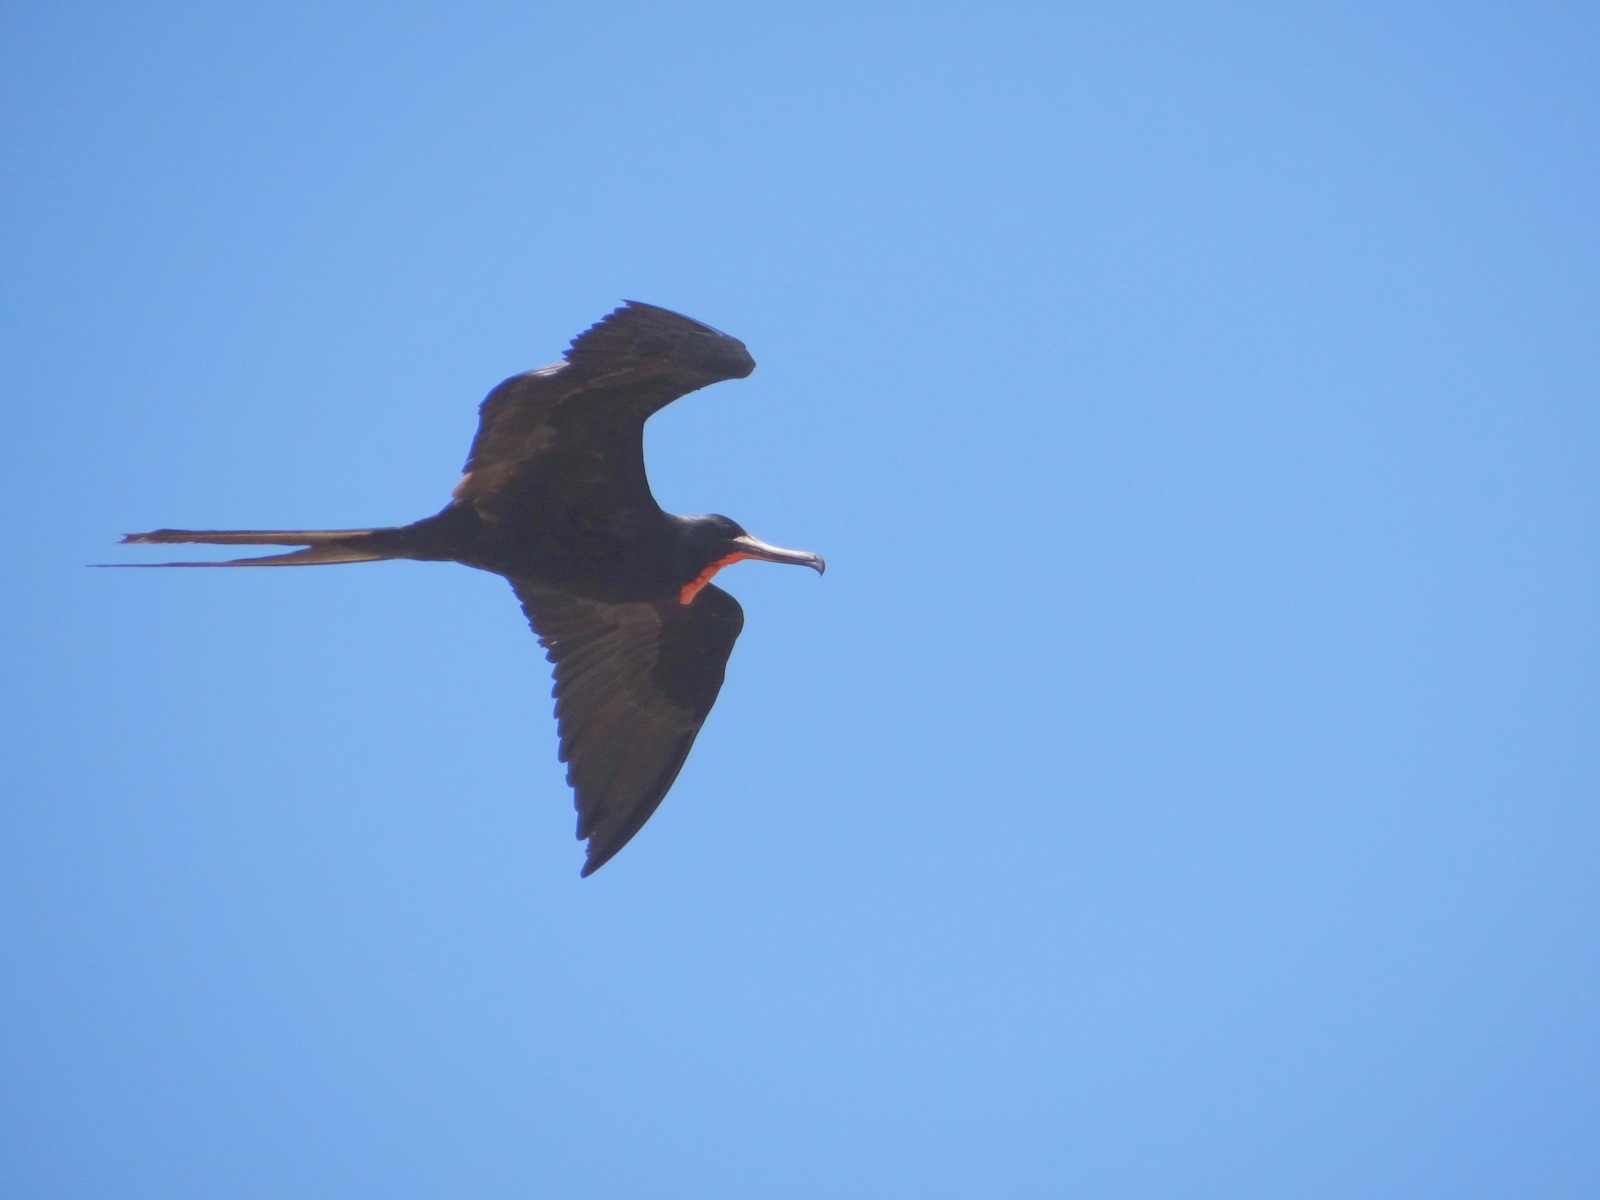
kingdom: Animalia
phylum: Chordata
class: Aves
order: Suliformes
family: Fregatidae
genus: Fregata
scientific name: Fregata magnificens
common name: Magnificent frigatebird
